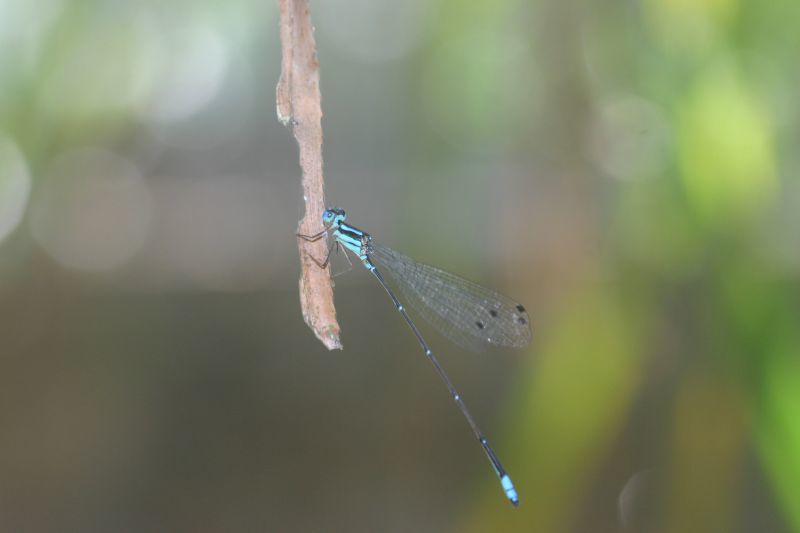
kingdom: Animalia
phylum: Arthropoda
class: Insecta
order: Odonata
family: Platycnemididae
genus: Caconeura
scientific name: Caconeura risi
